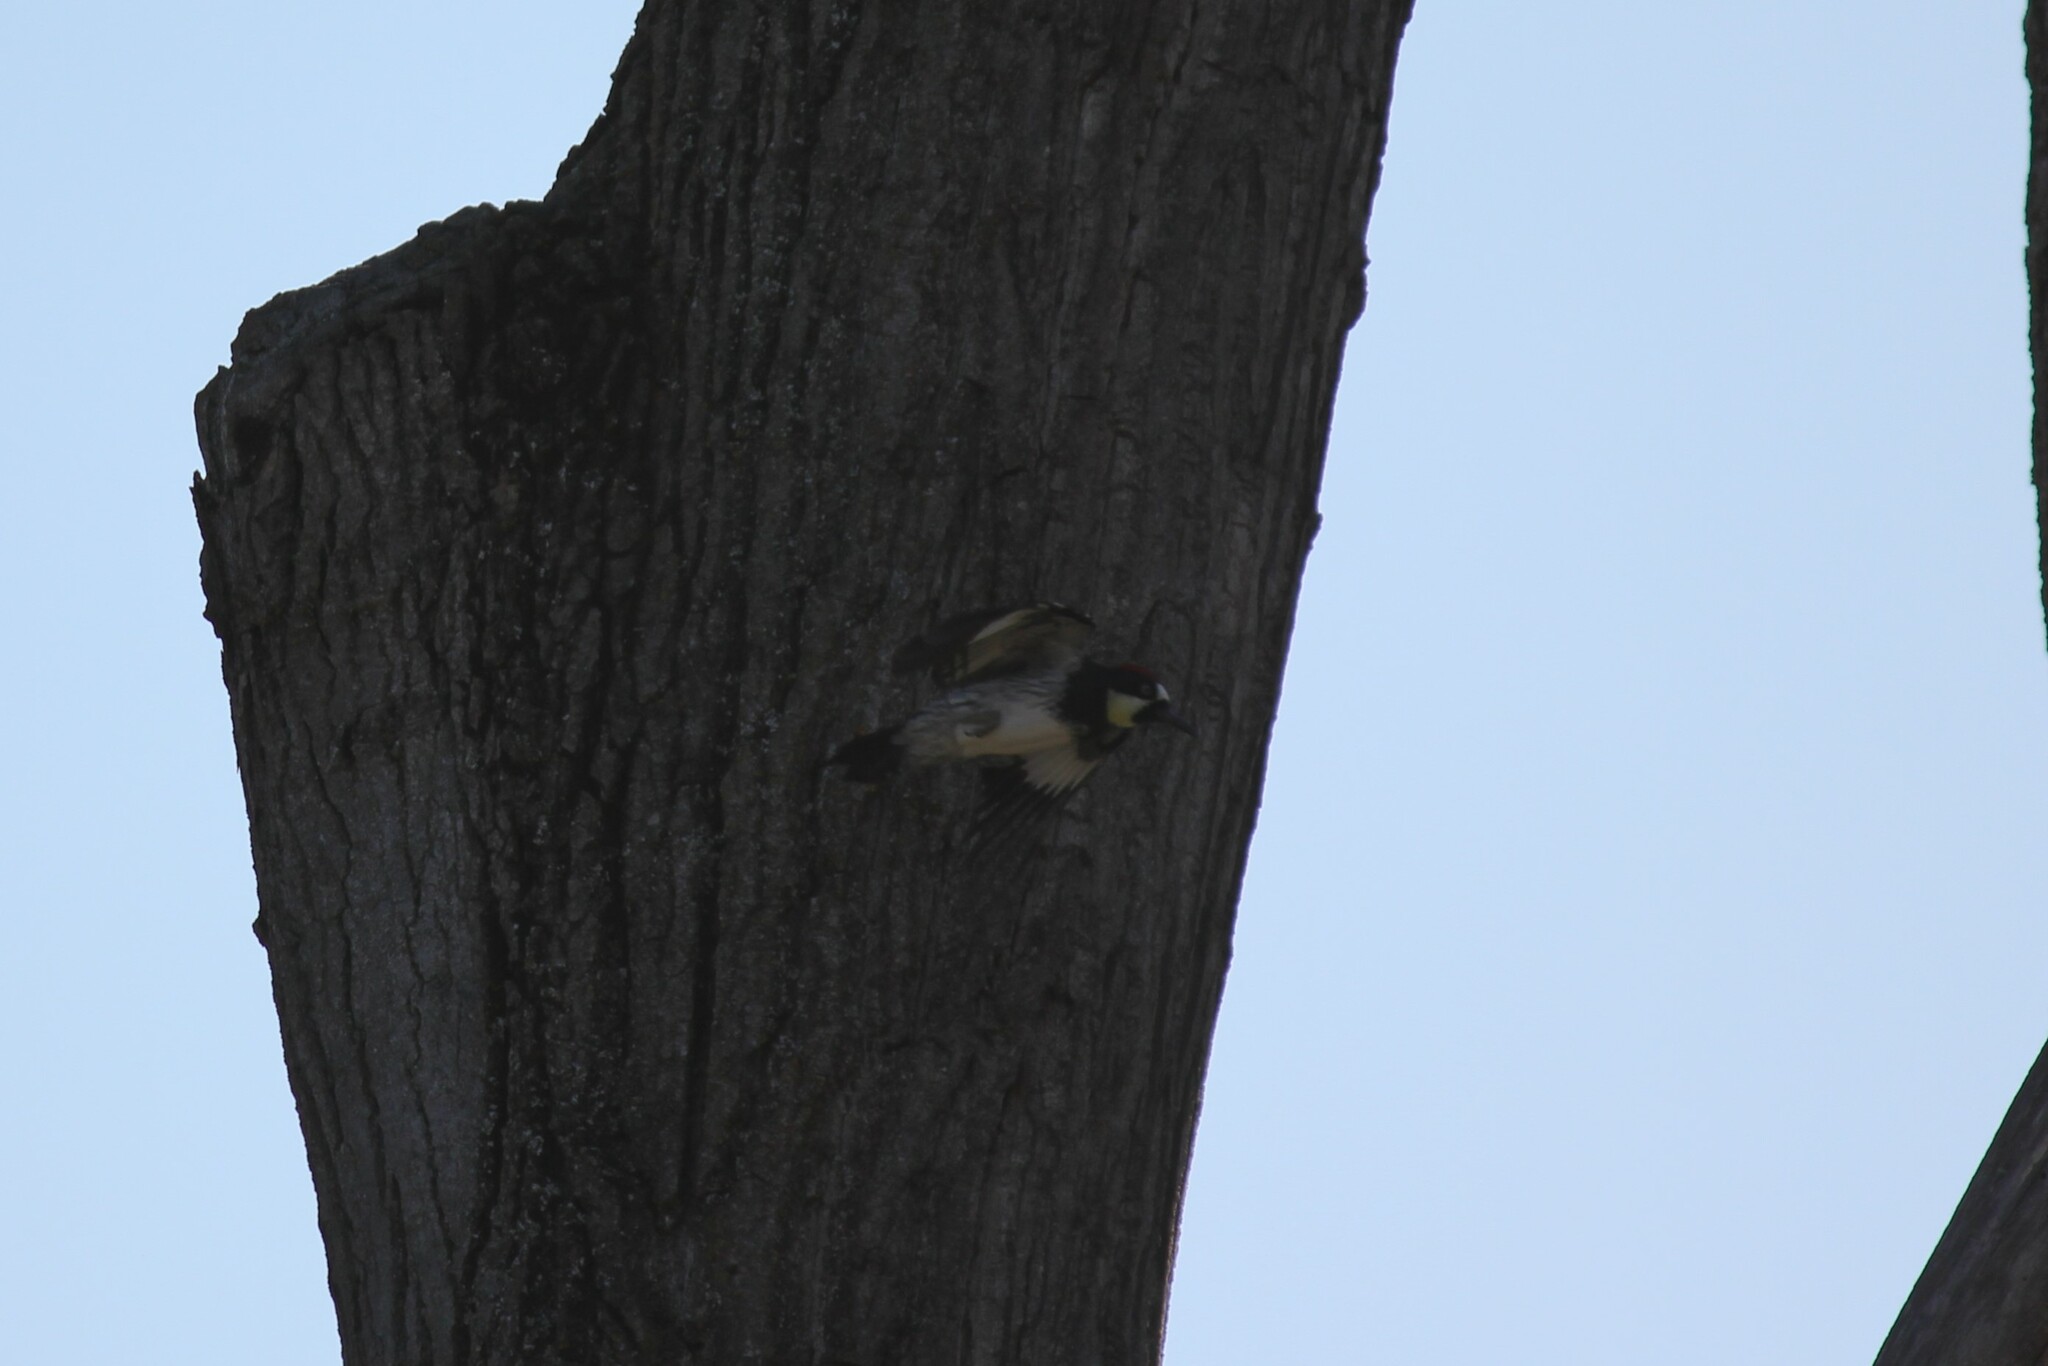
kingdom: Animalia
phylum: Chordata
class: Aves
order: Piciformes
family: Picidae
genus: Melanerpes
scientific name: Melanerpes formicivorus
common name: Acorn woodpecker
